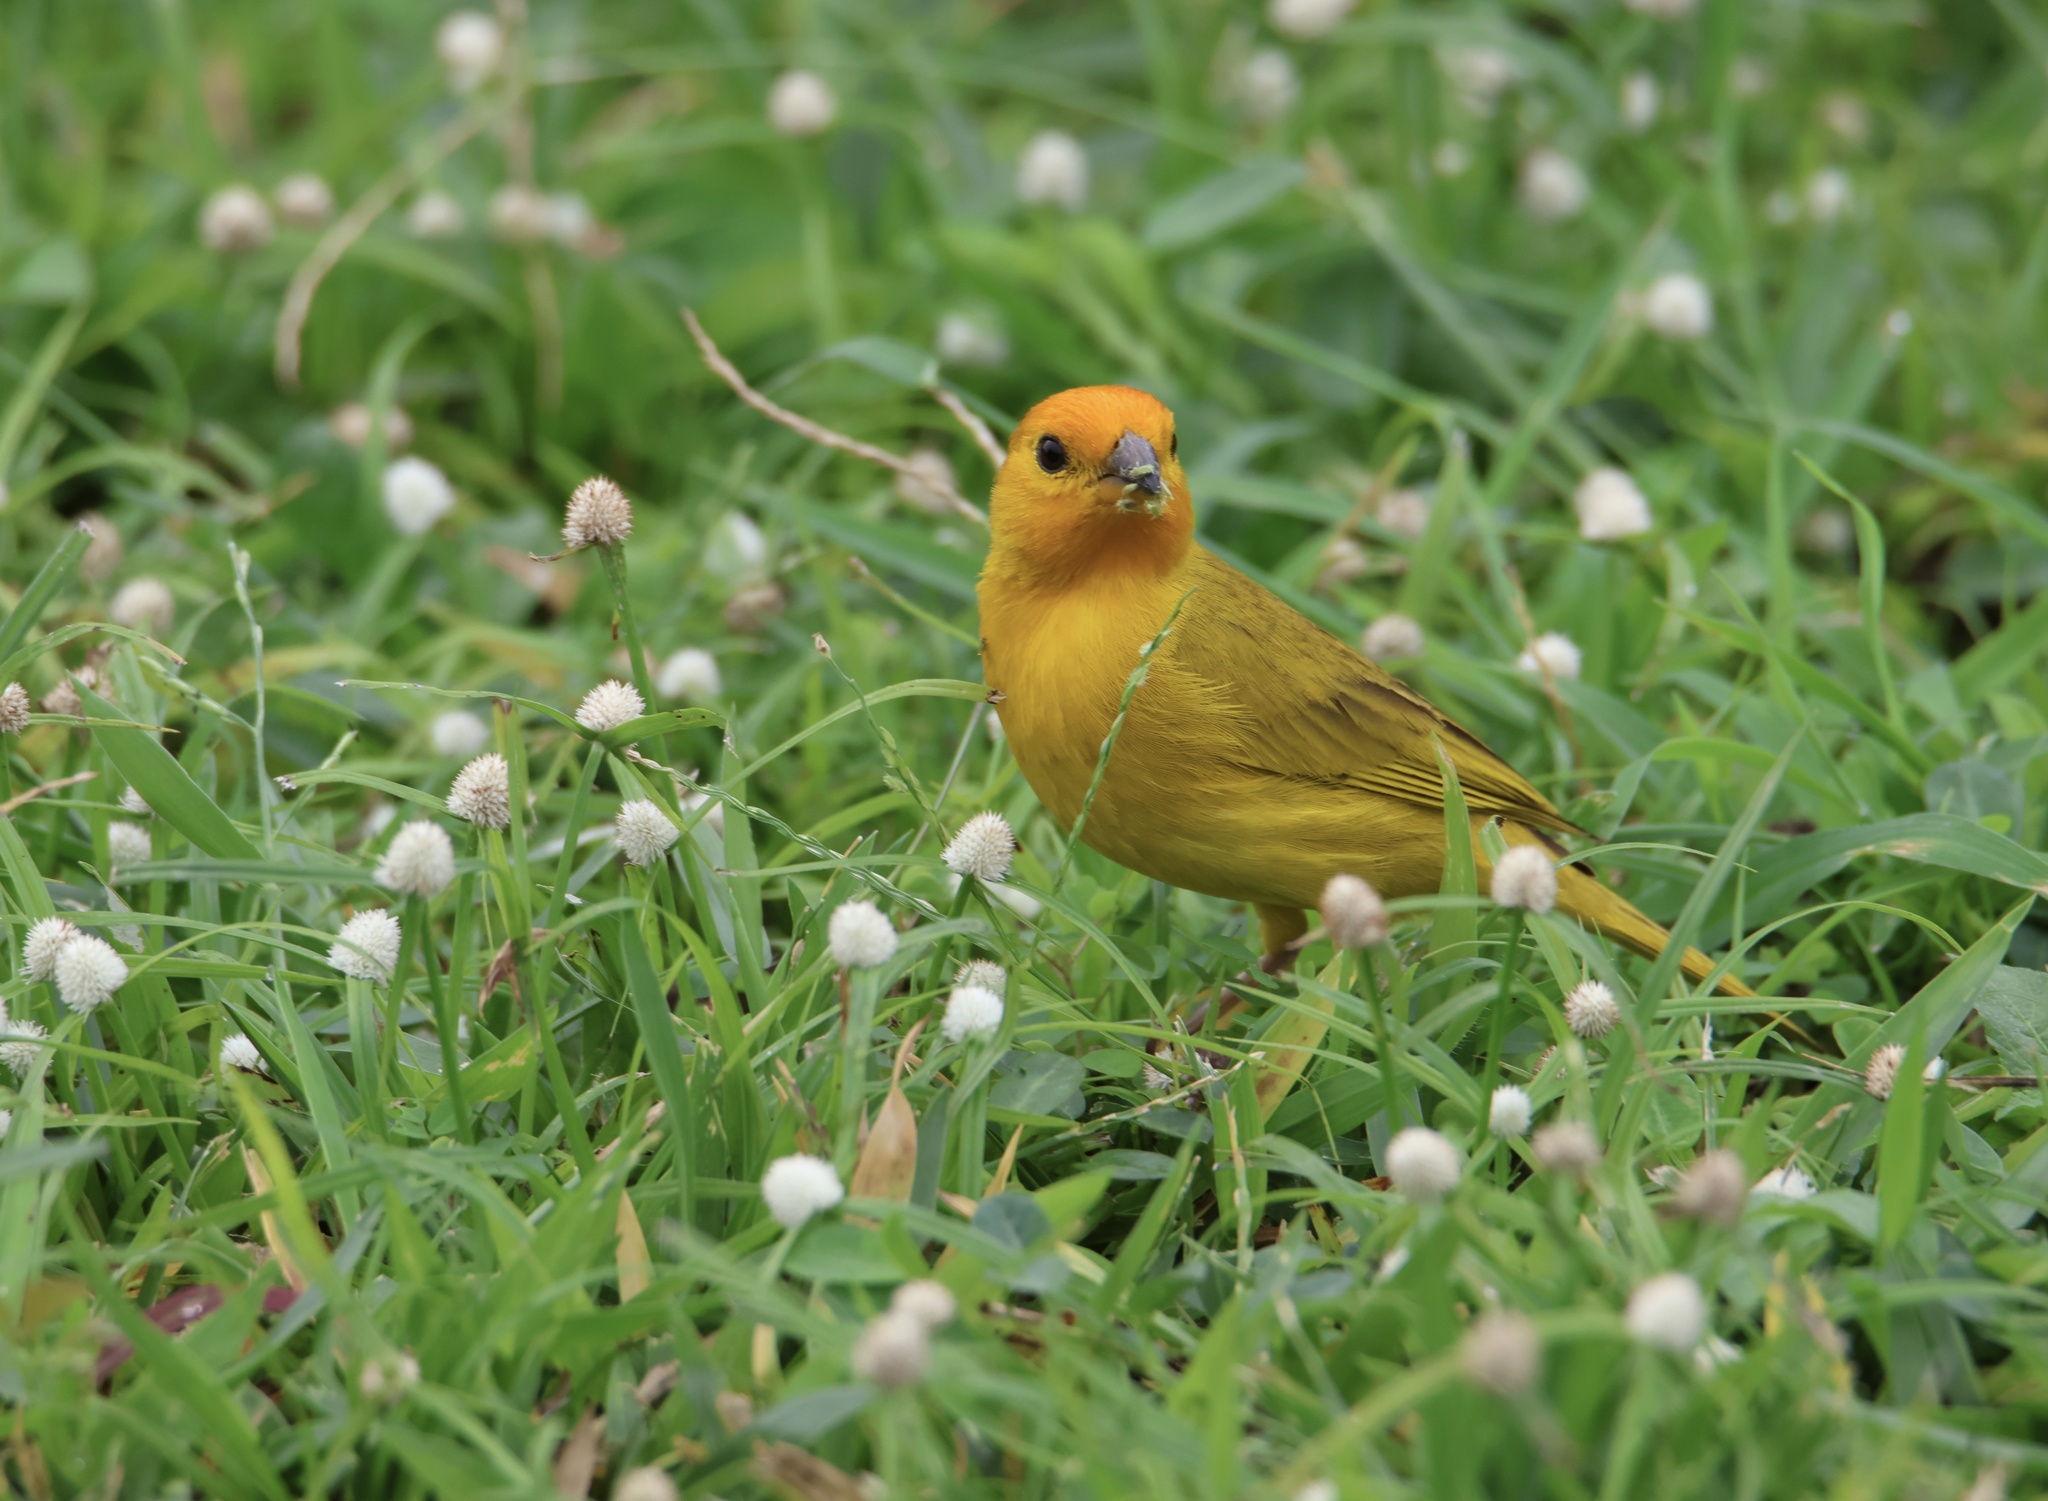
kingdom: Animalia
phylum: Chordata
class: Aves
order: Passeriformes
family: Thraupidae
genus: Sicalis
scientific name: Sicalis flaveola
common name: Saffron finch
